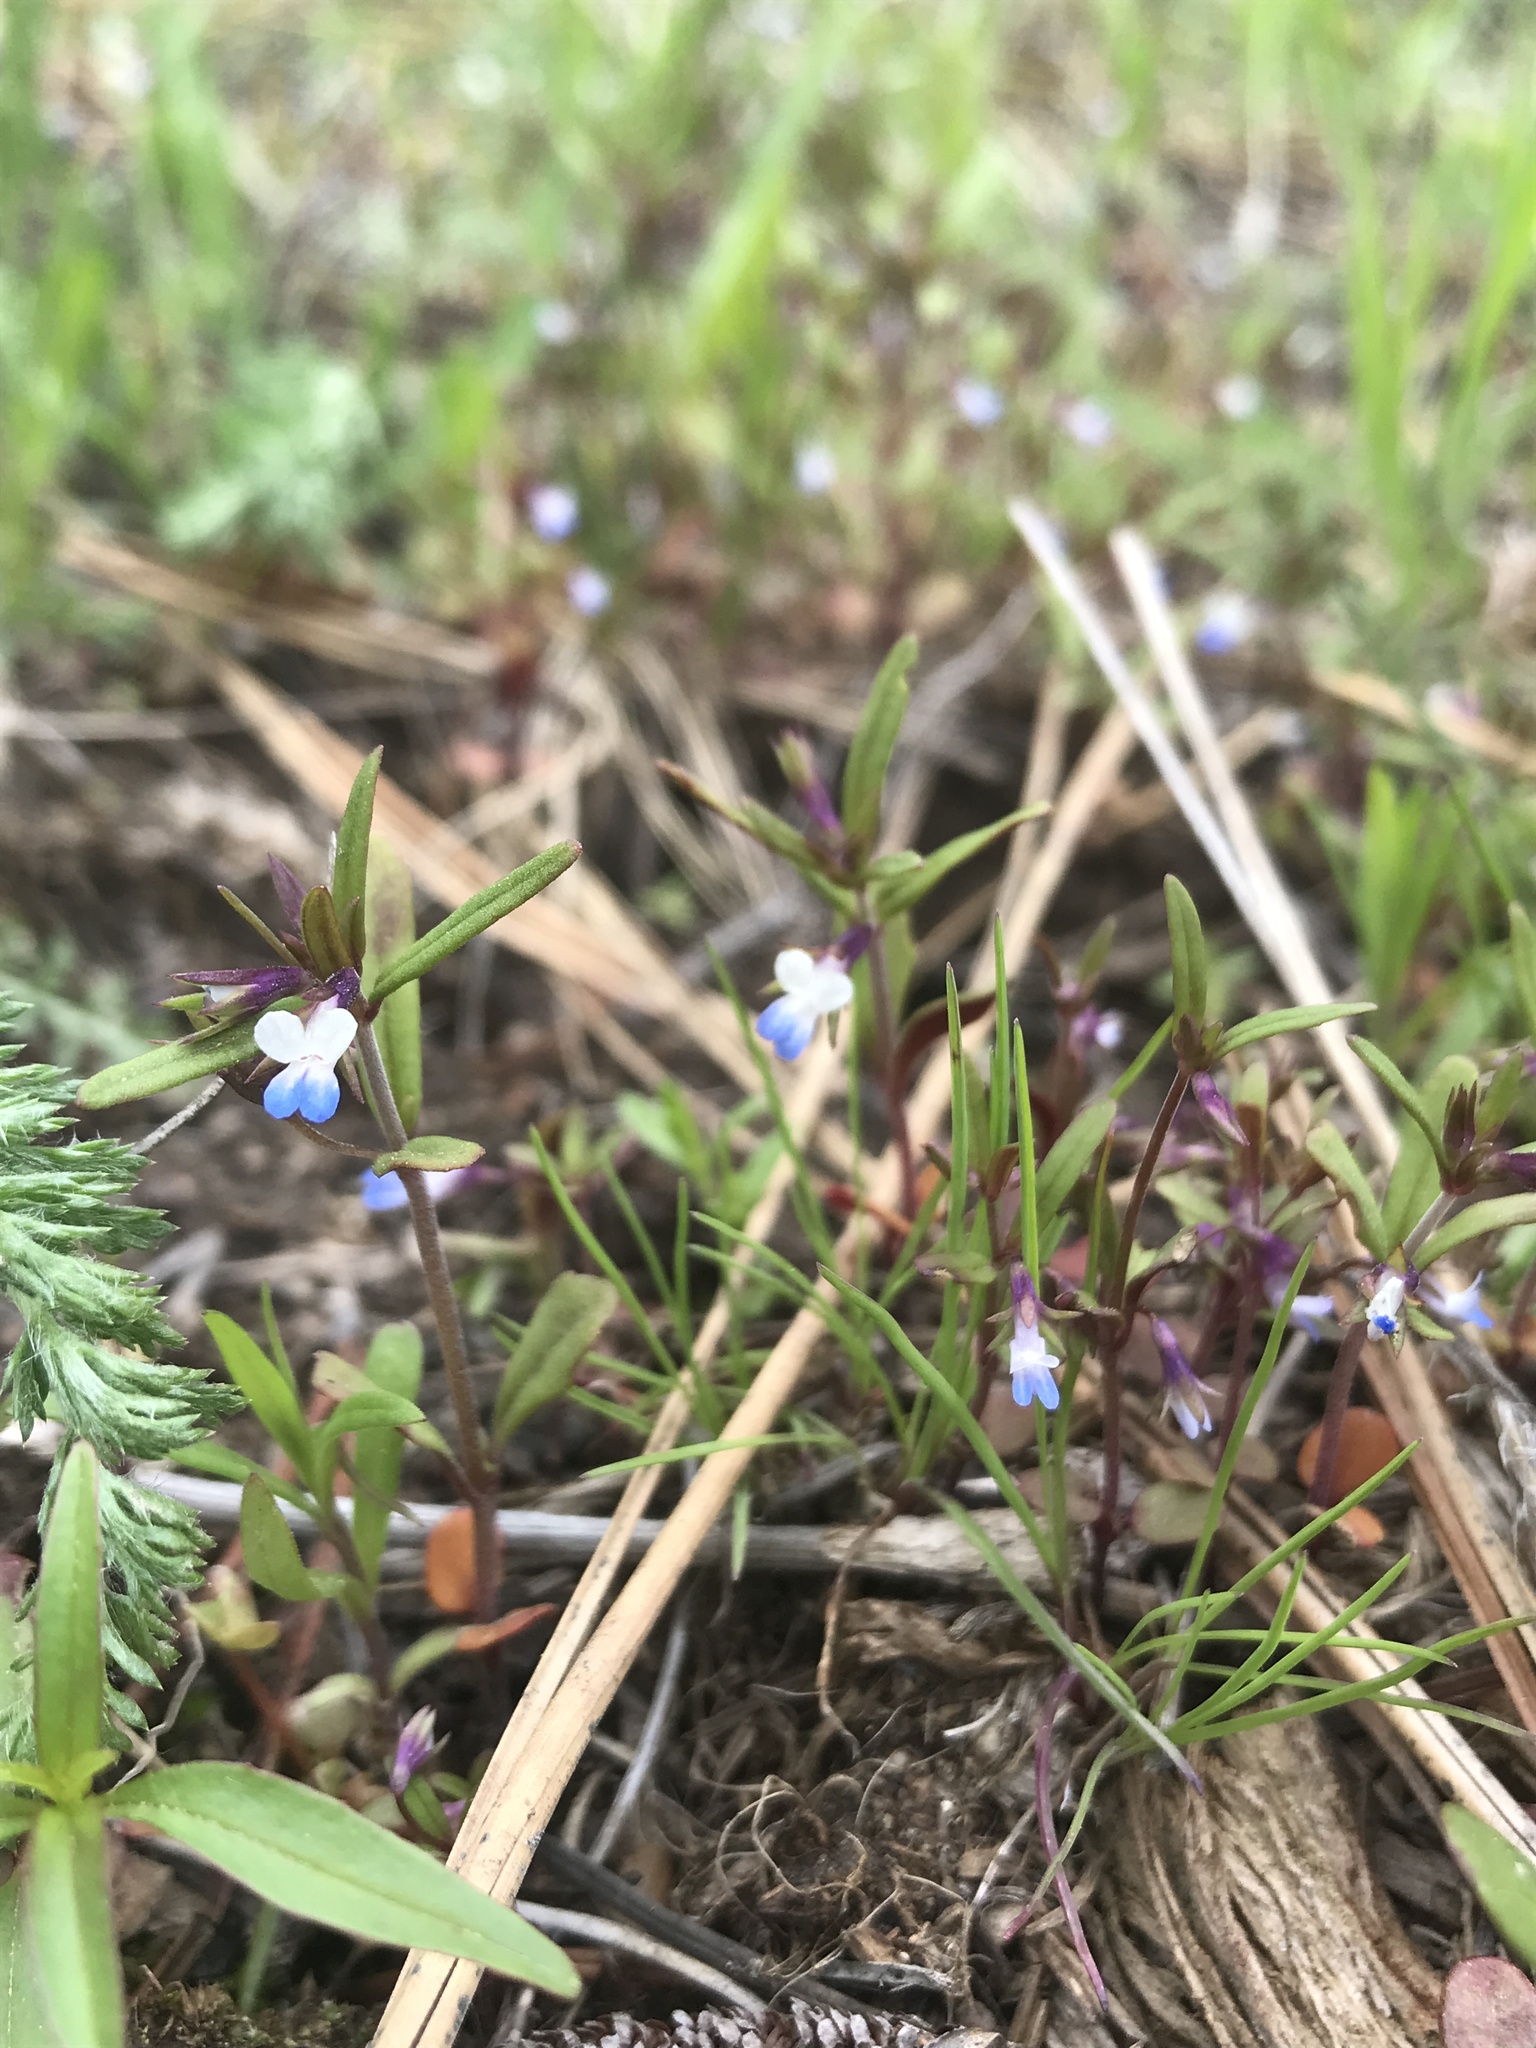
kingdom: Plantae
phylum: Tracheophyta
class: Magnoliopsida
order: Lamiales
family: Plantaginaceae
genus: Collinsia
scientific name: Collinsia parviflora
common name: Blue-lips
